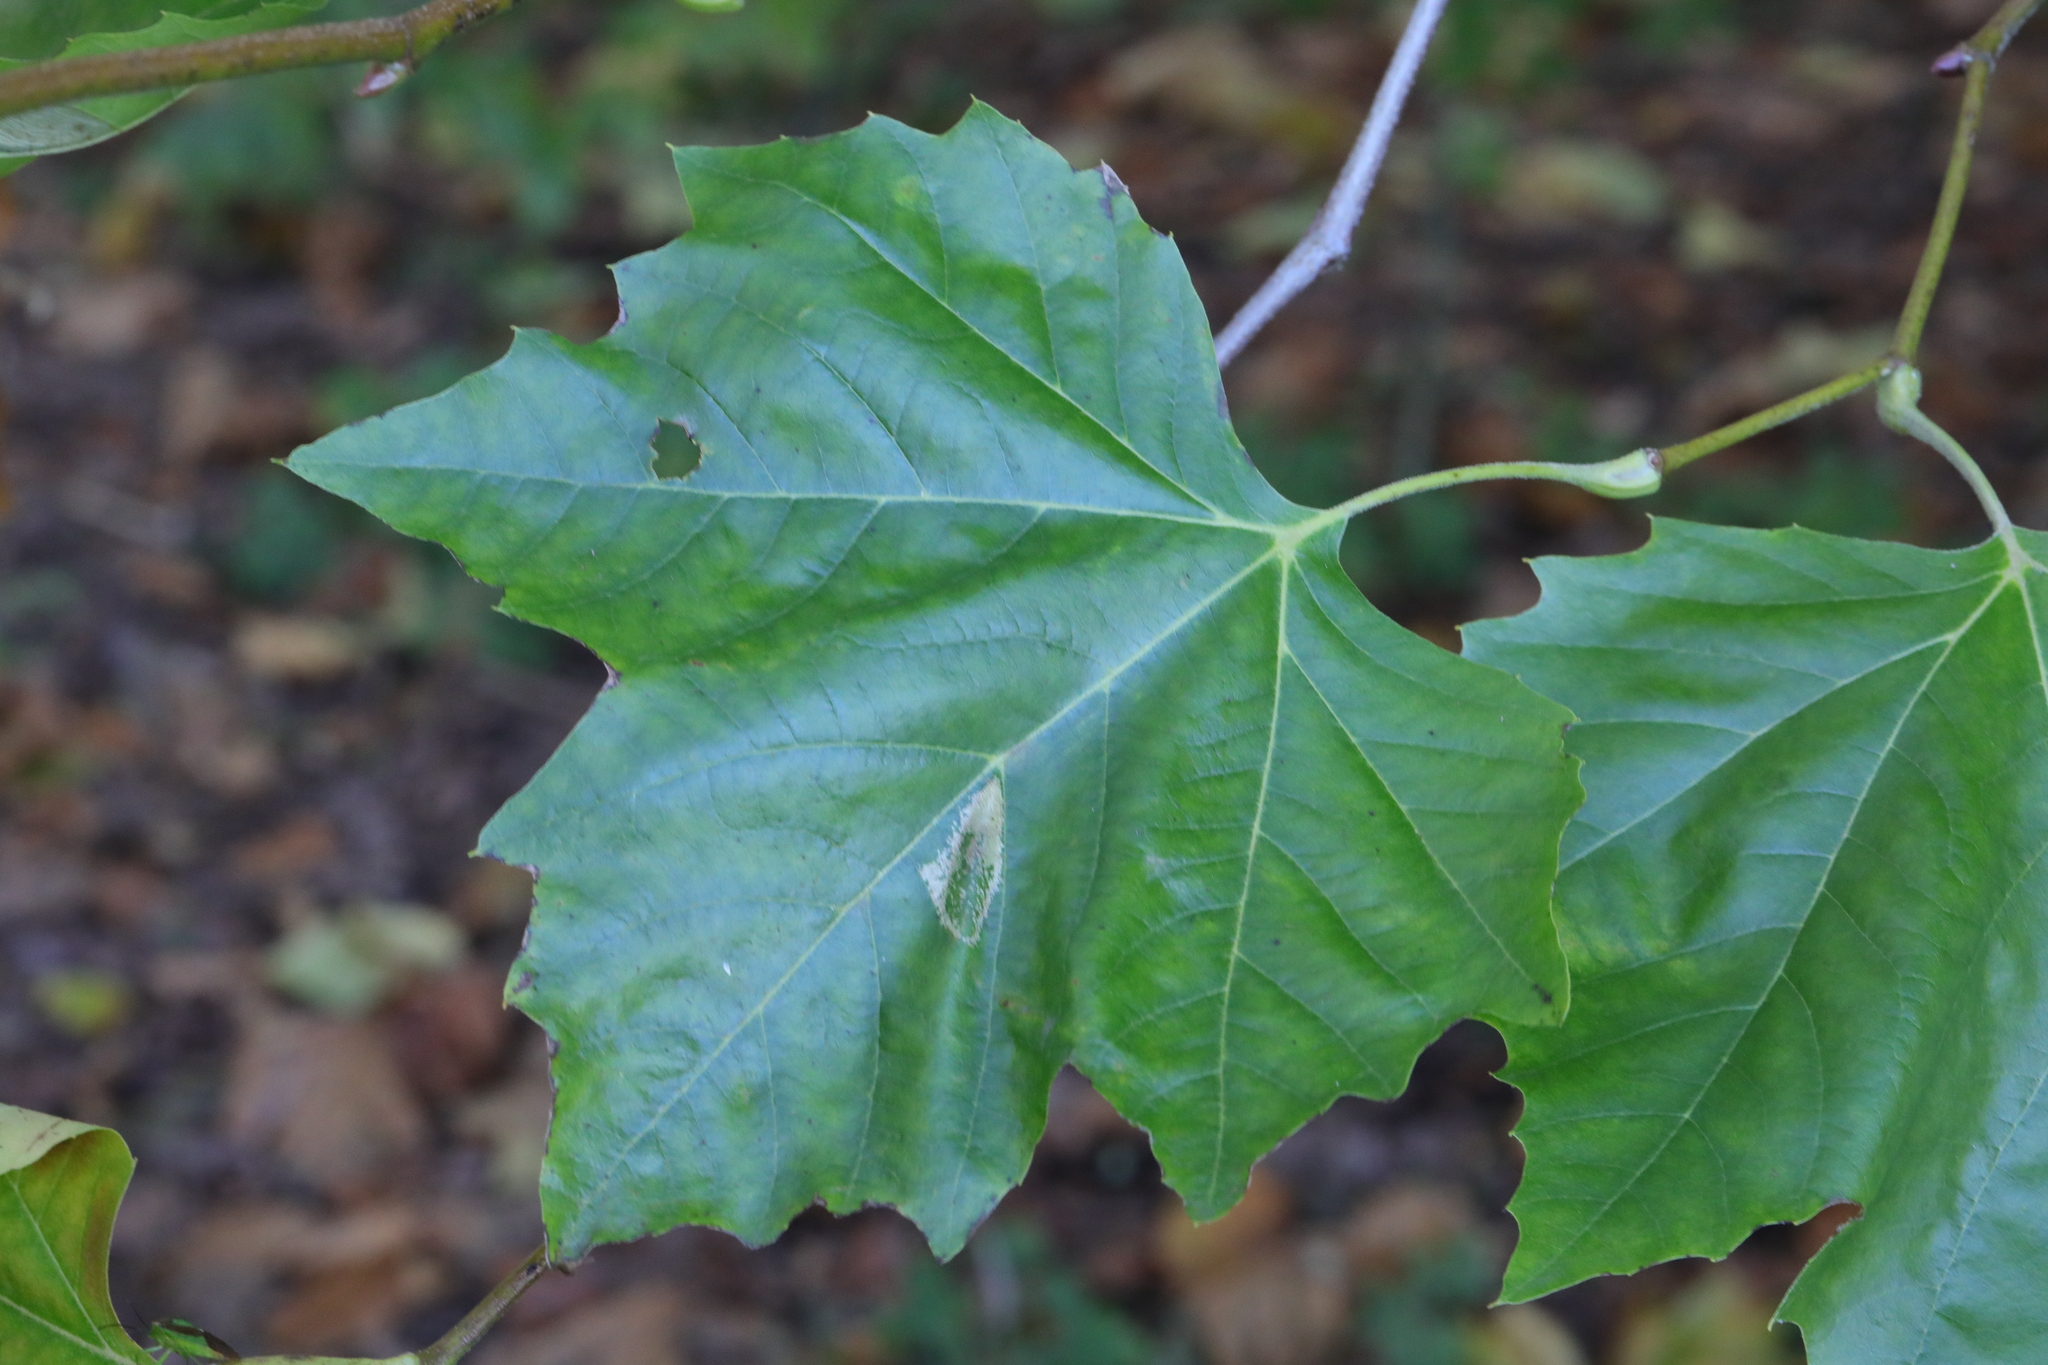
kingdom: Plantae
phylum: Tracheophyta
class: Magnoliopsida
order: Proteales
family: Platanaceae
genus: Platanus
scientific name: Platanus hispanica
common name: London plane
